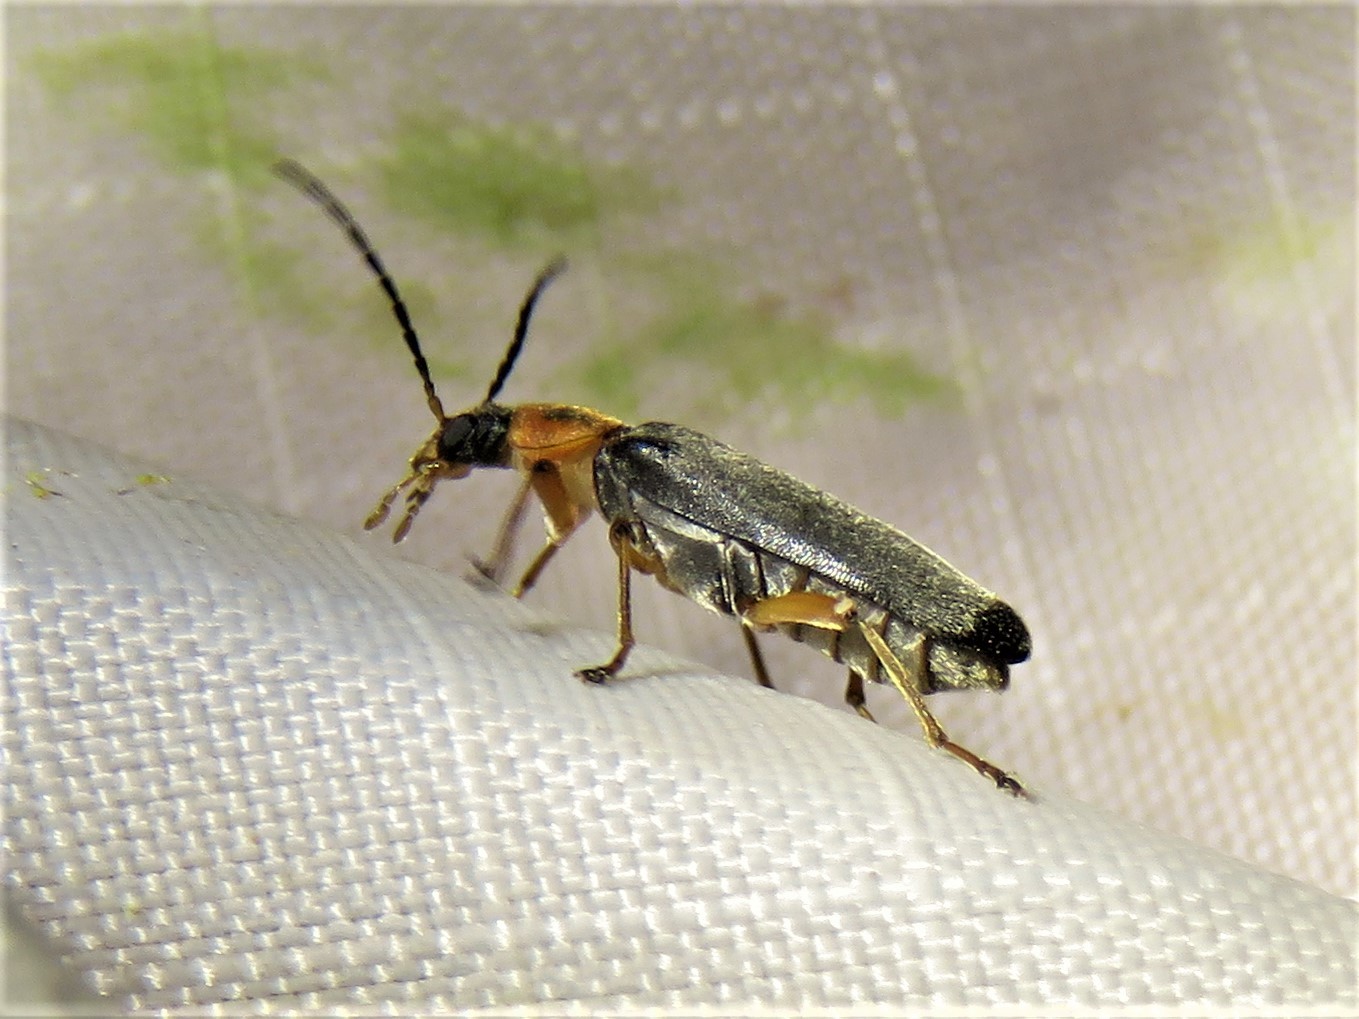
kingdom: Animalia
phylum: Arthropoda
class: Insecta
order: Coleoptera
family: Melandryidae
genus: Osphya
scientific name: Osphya varians
